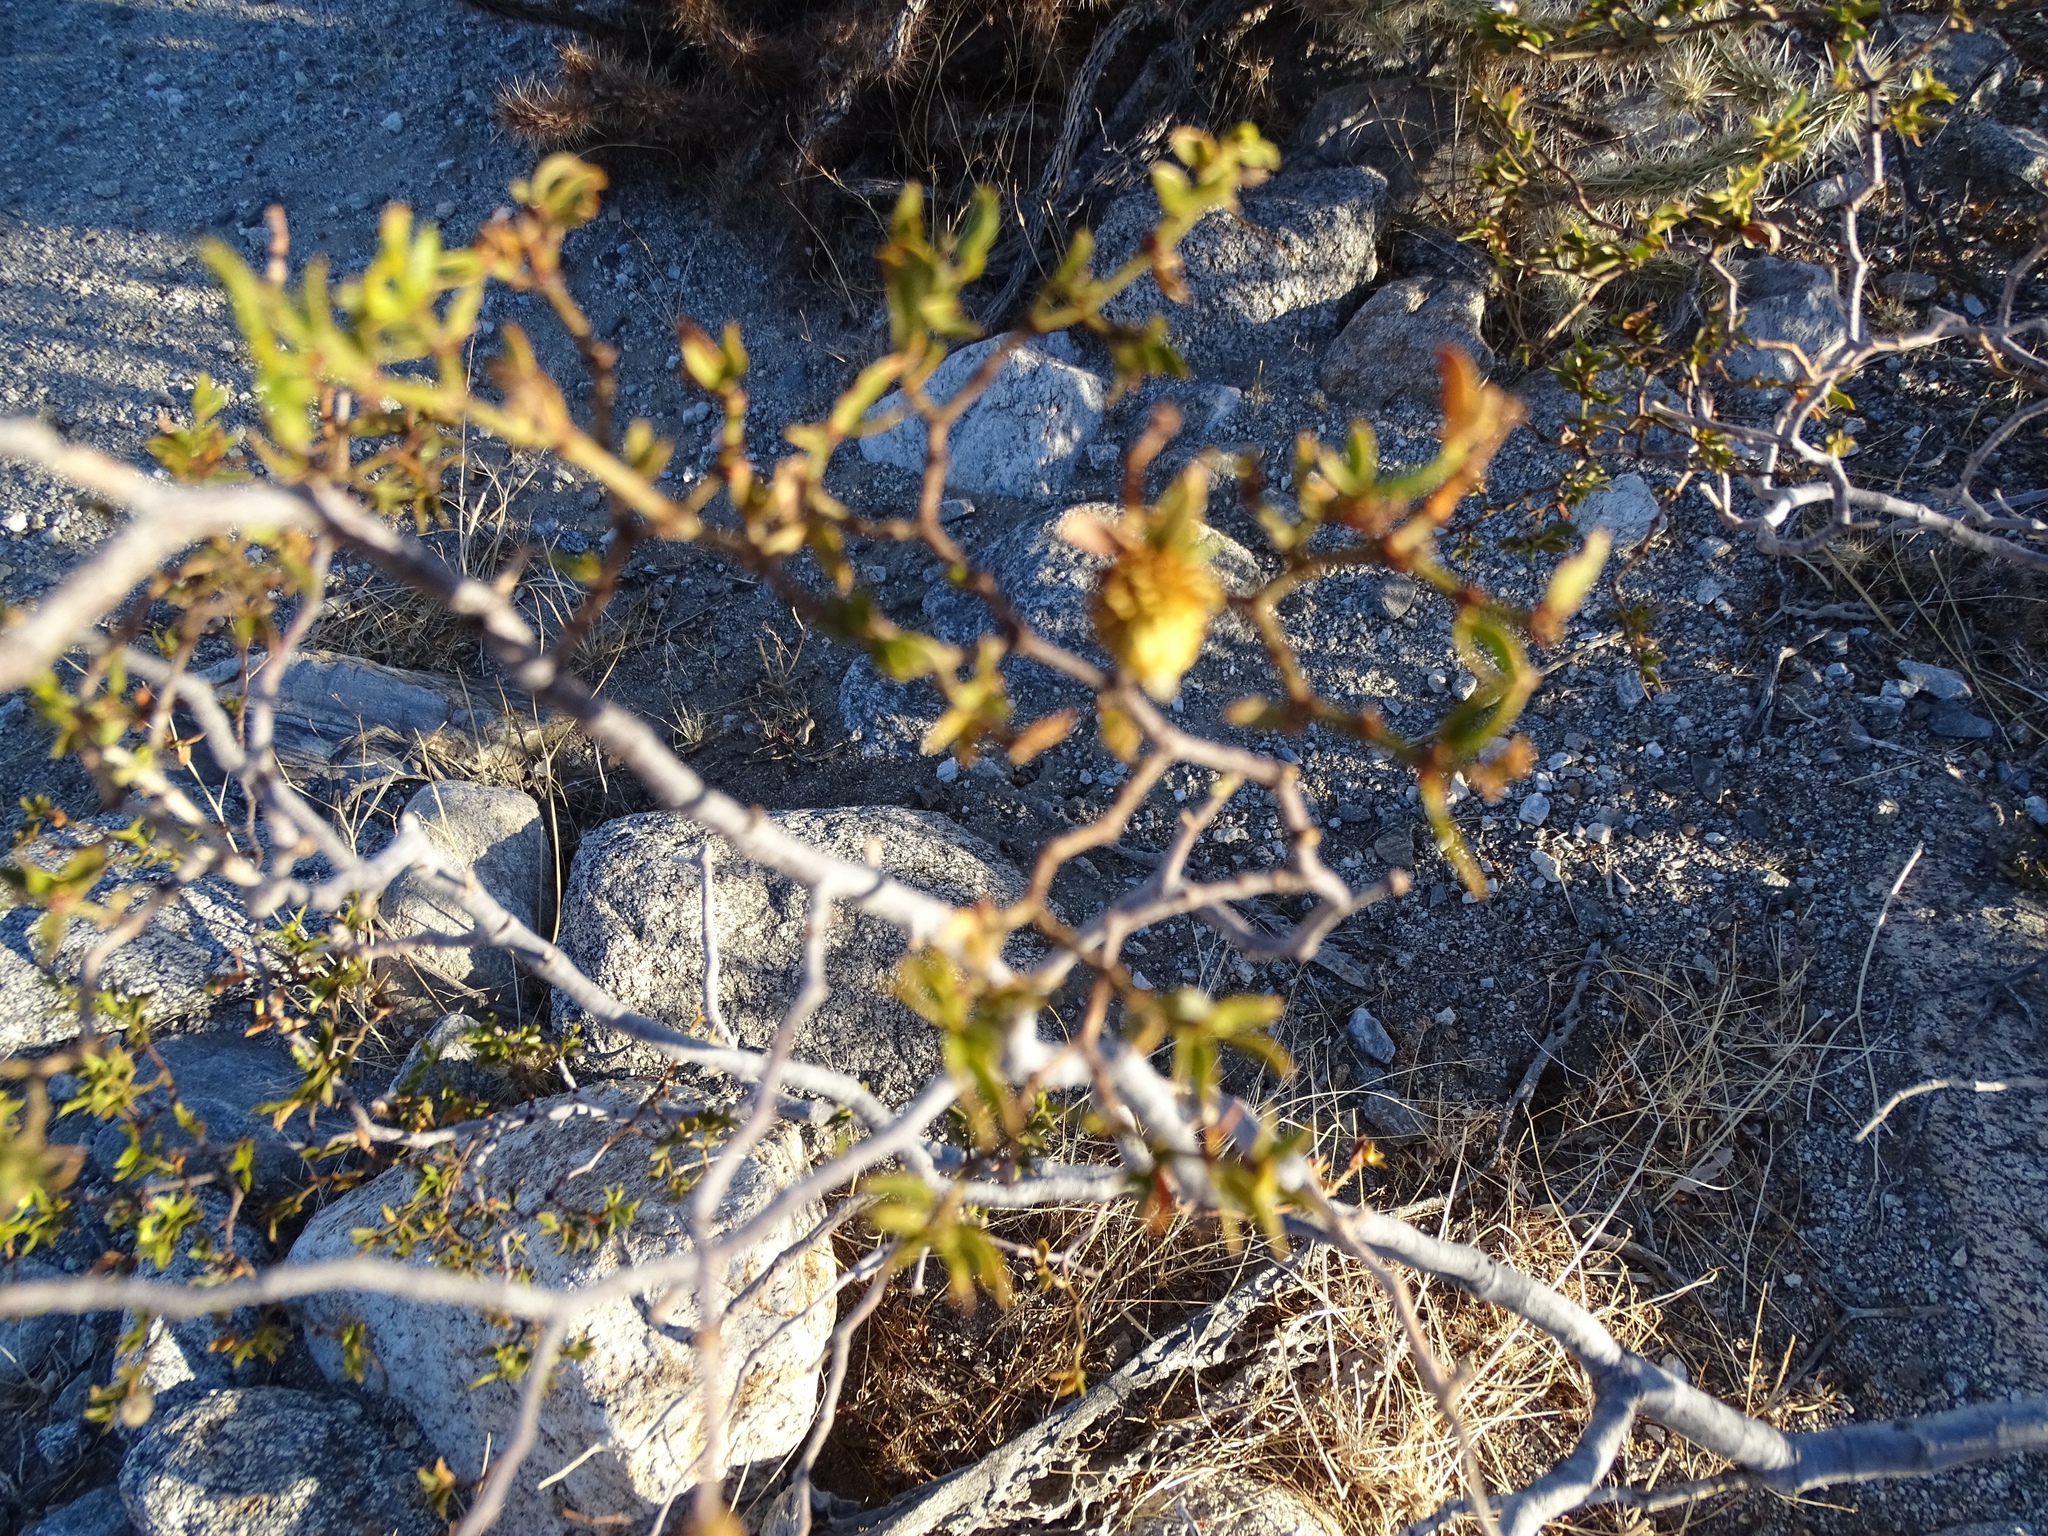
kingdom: Plantae
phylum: Tracheophyta
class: Magnoliopsida
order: Zygophyllales
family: Zygophyllaceae
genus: Larrea
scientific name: Larrea tridentata
